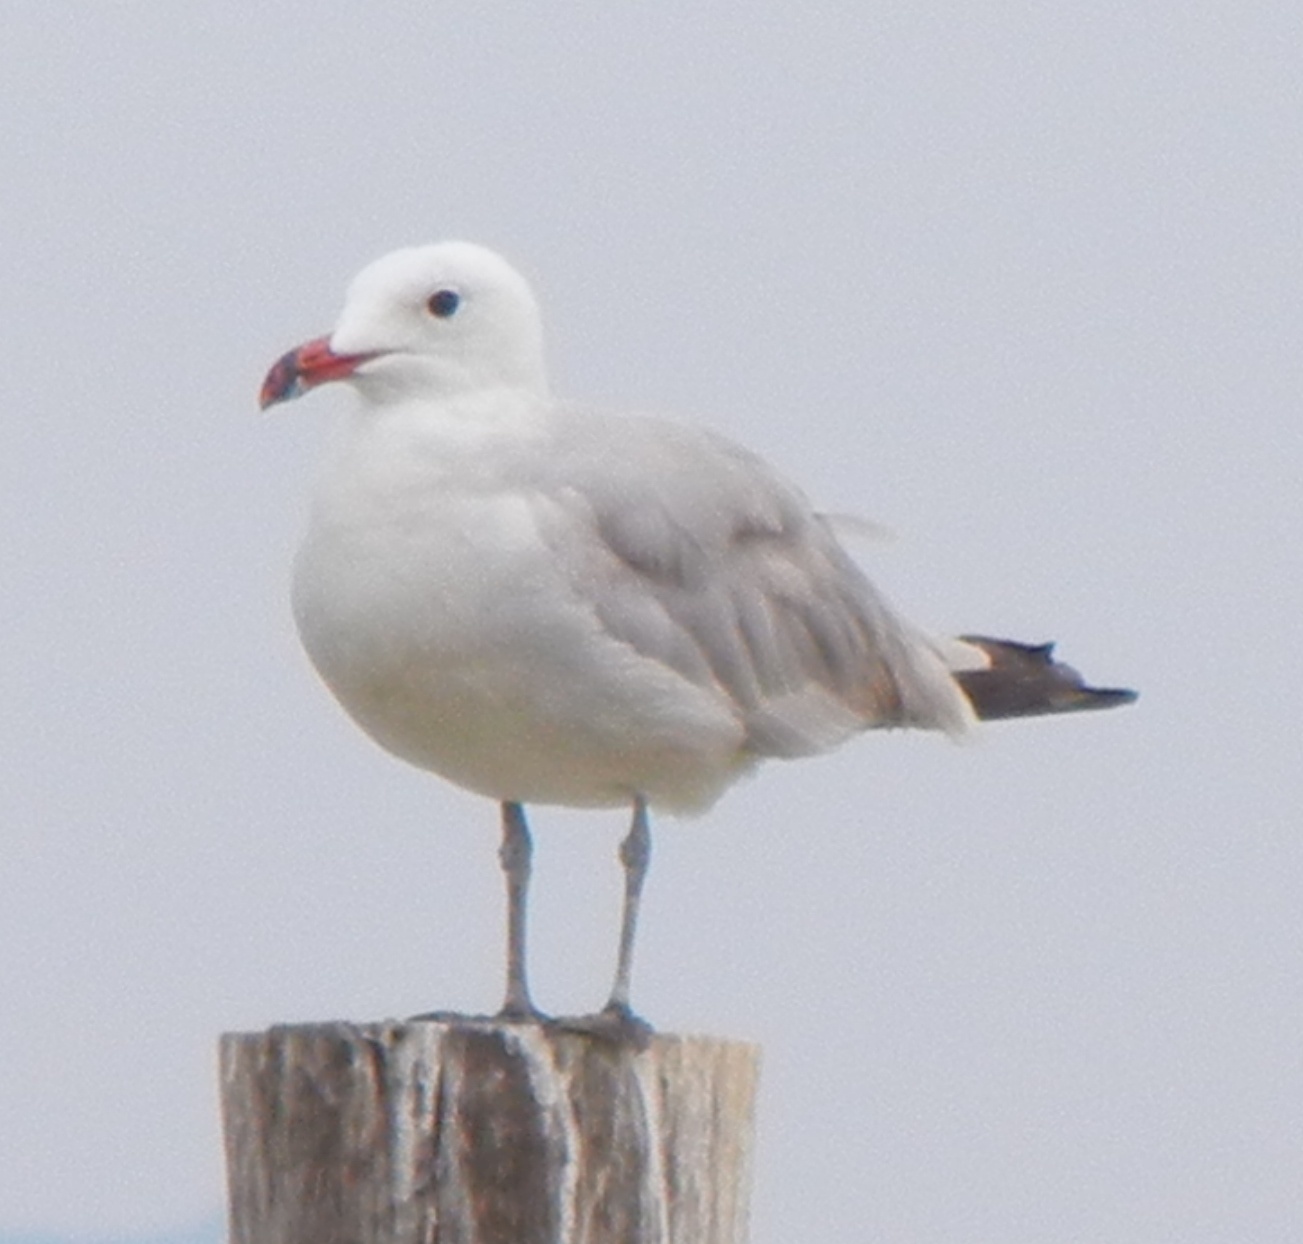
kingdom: Animalia
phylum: Chordata
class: Aves
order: Charadriiformes
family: Laridae
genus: Ichthyaetus
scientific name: Ichthyaetus audouinii
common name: Audouin's gull
